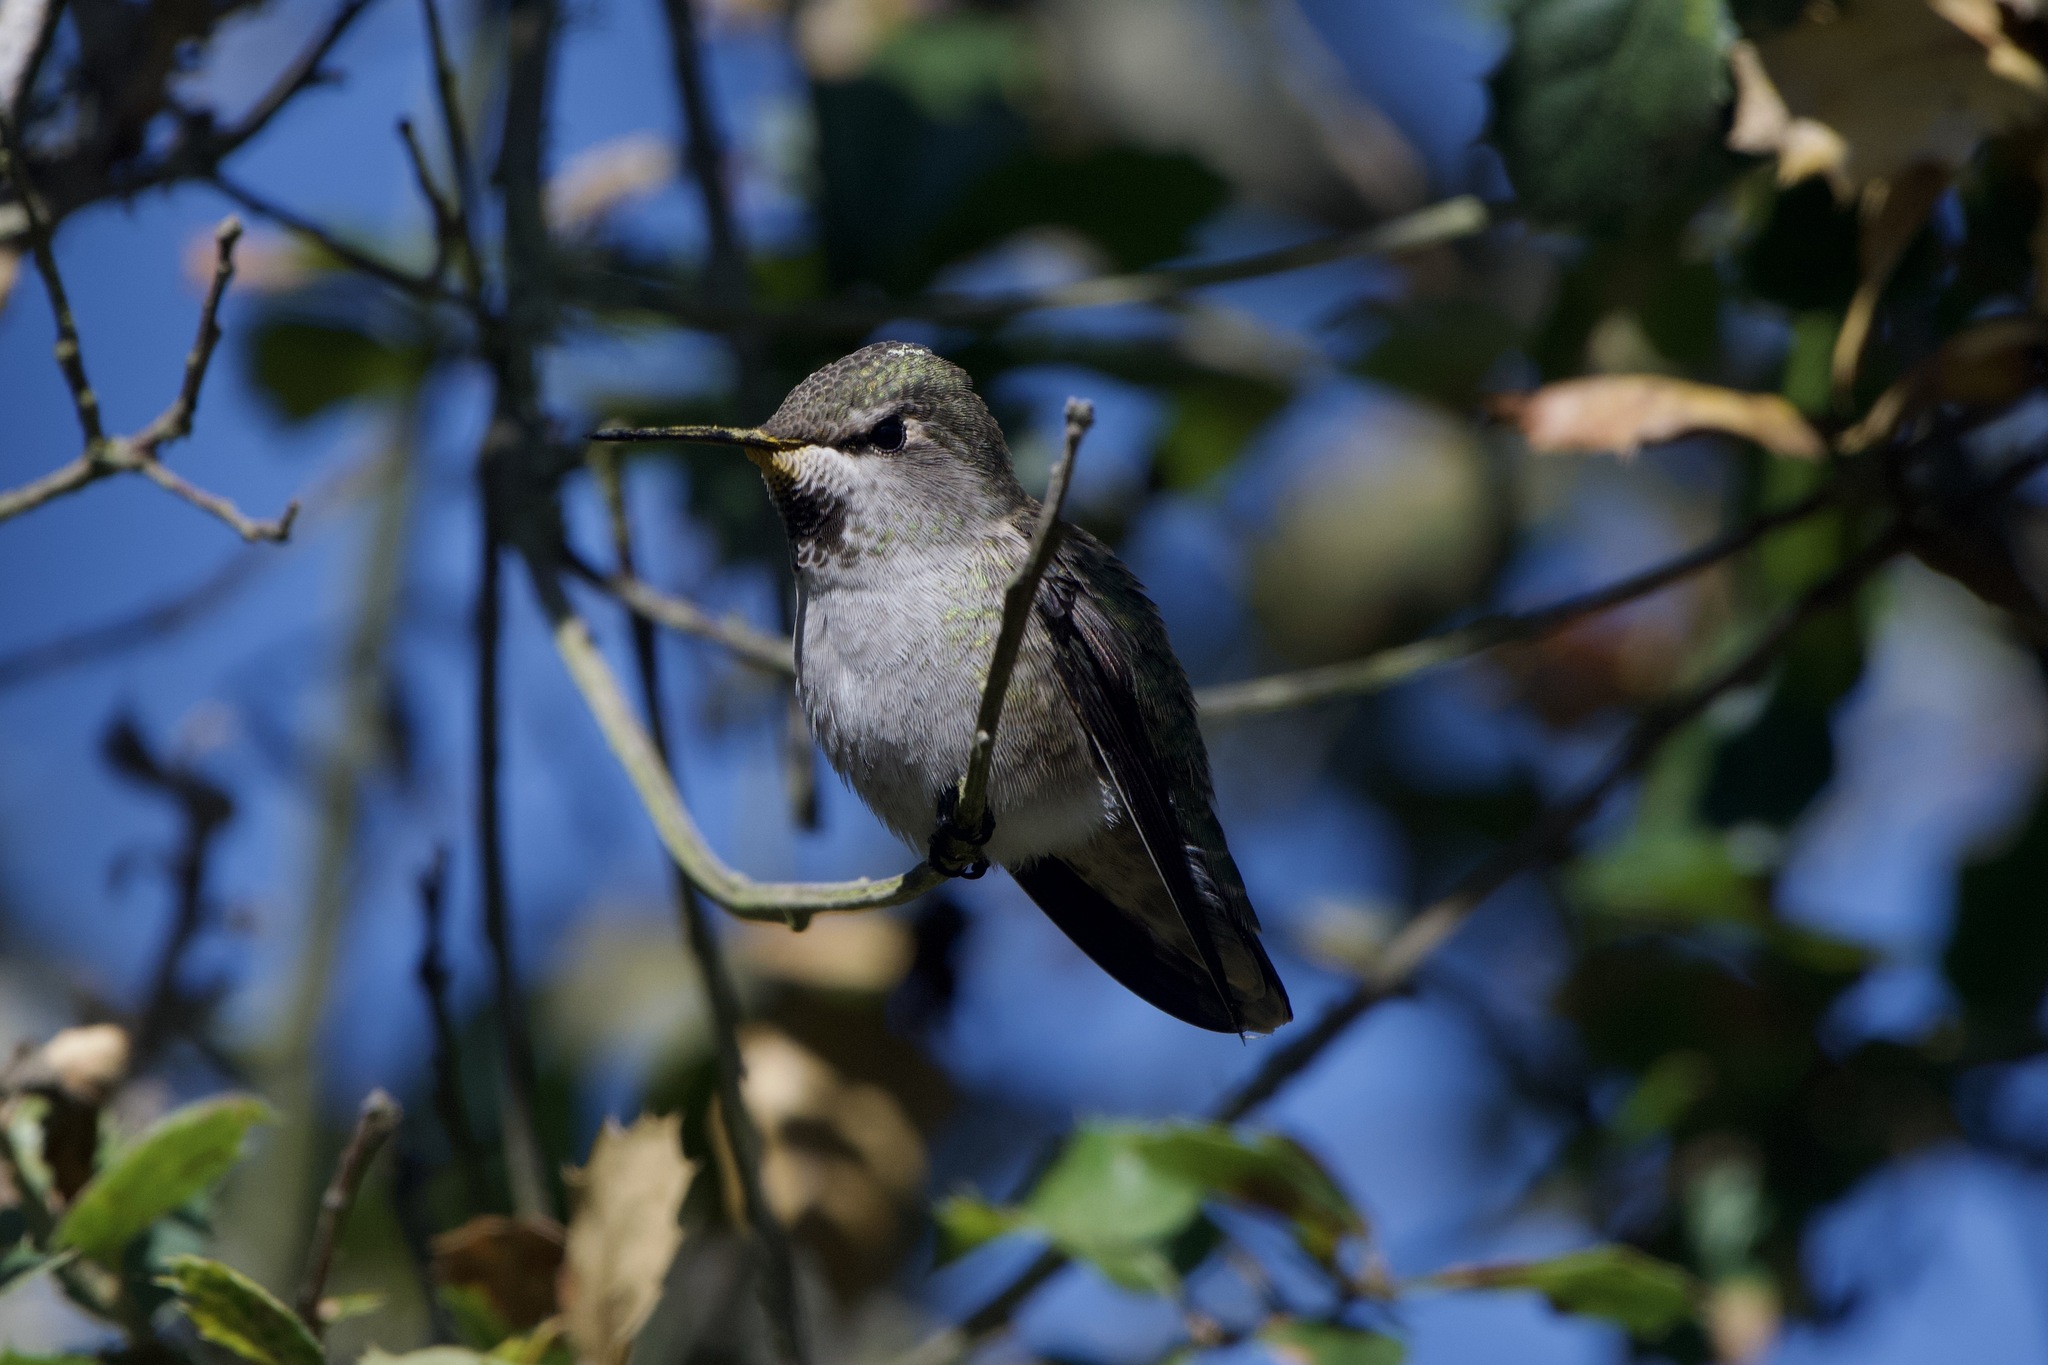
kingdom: Animalia
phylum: Chordata
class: Aves
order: Apodiformes
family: Trochilidae
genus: Calypte
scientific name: Calypte anna
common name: Anna's hummingbird
